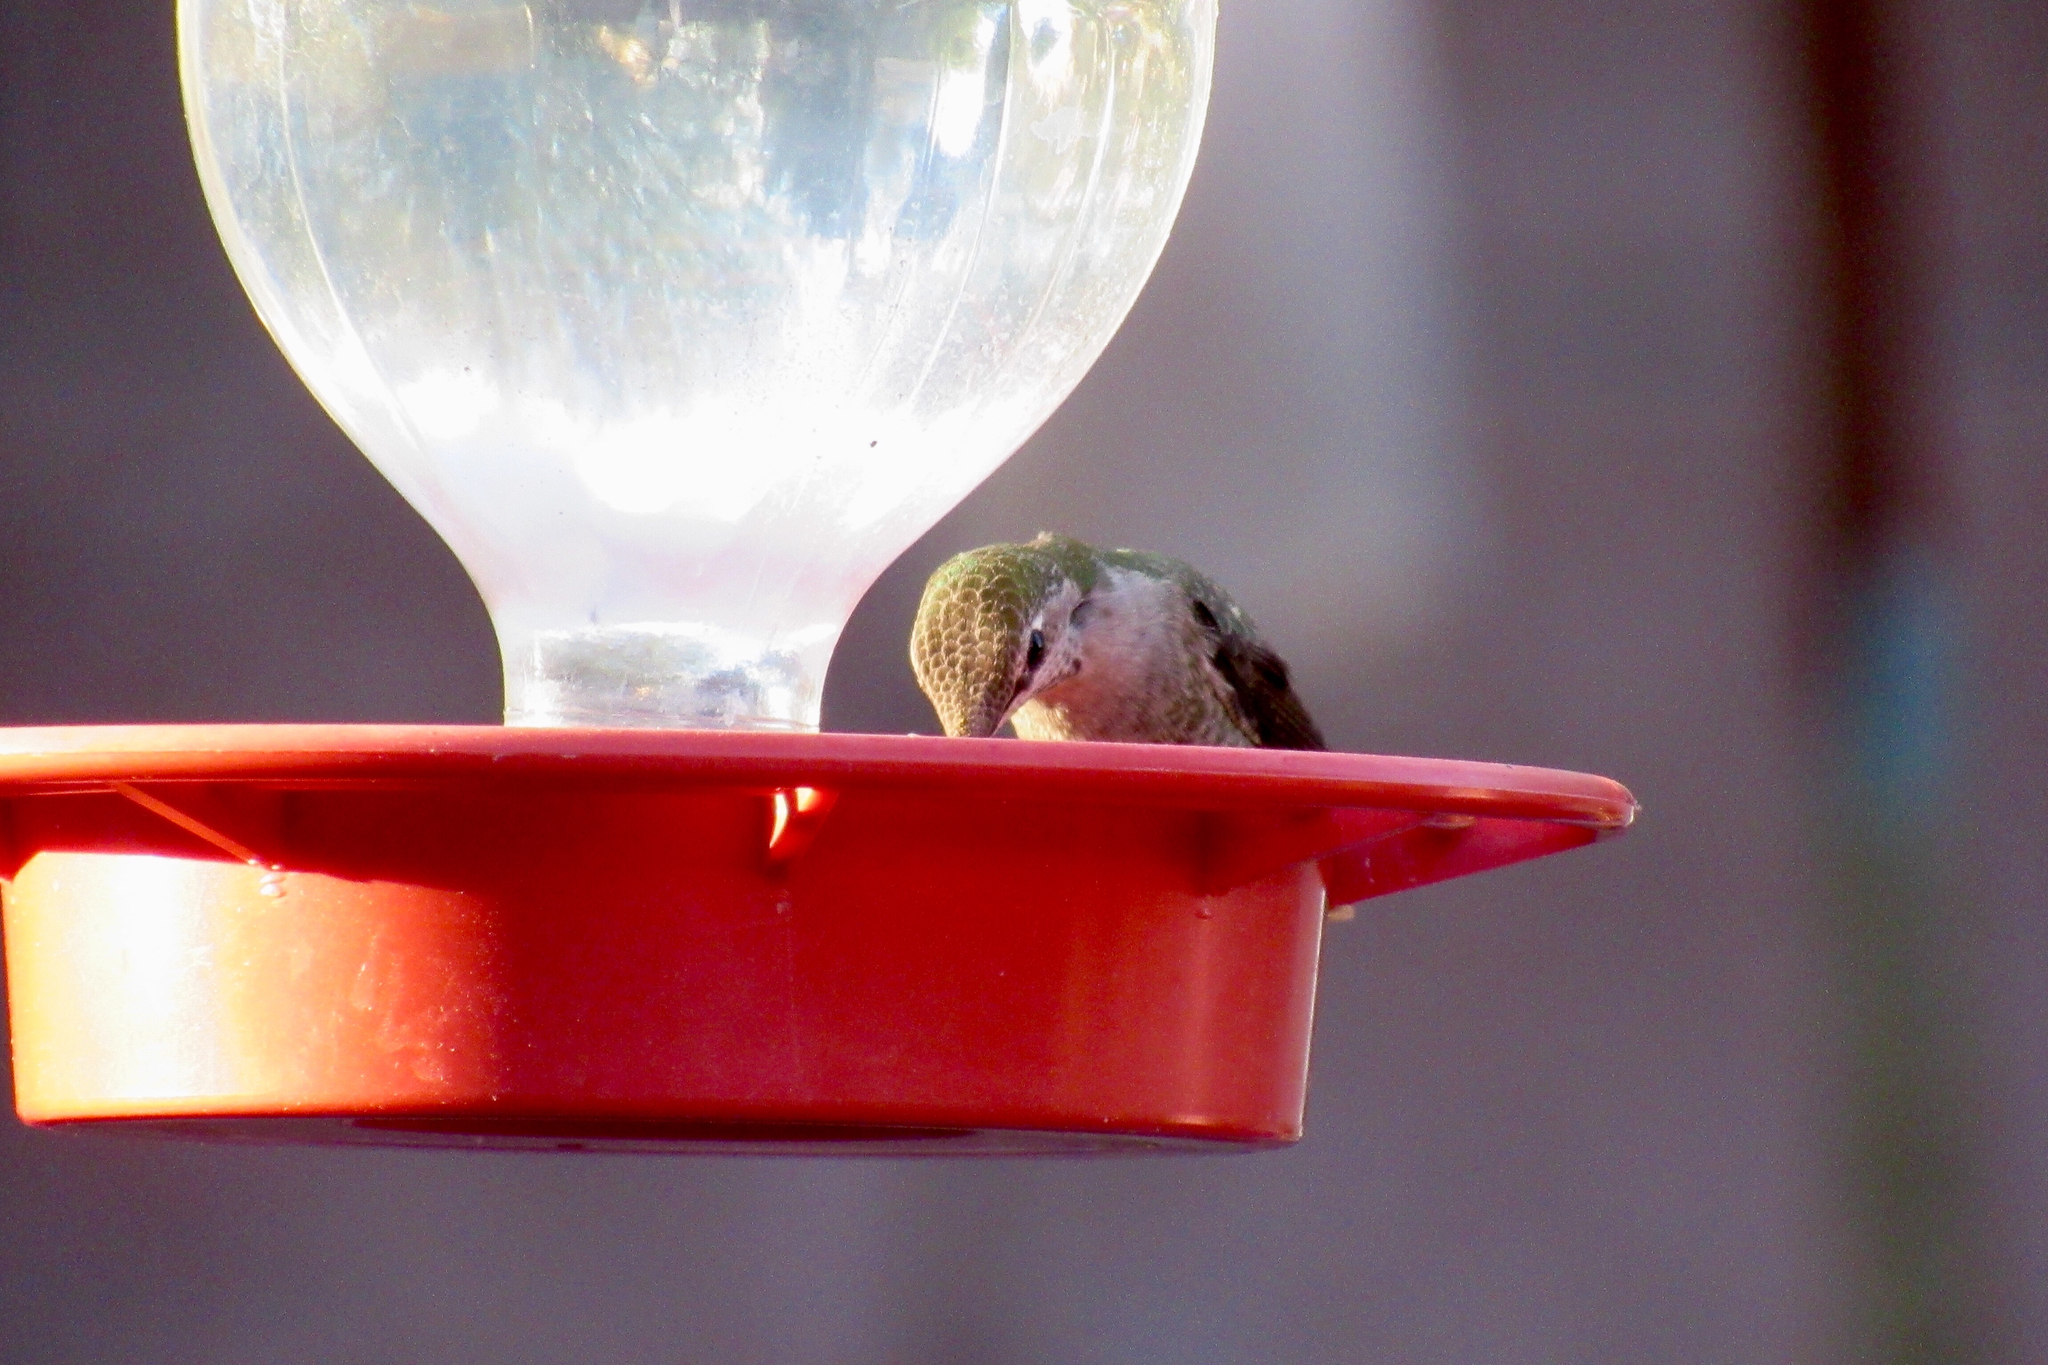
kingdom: Animalia
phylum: Chordata
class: Aves
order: Apodiformes
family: Trochilidae
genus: Calypte
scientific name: Calypte anna
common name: Anna's hummingbird
